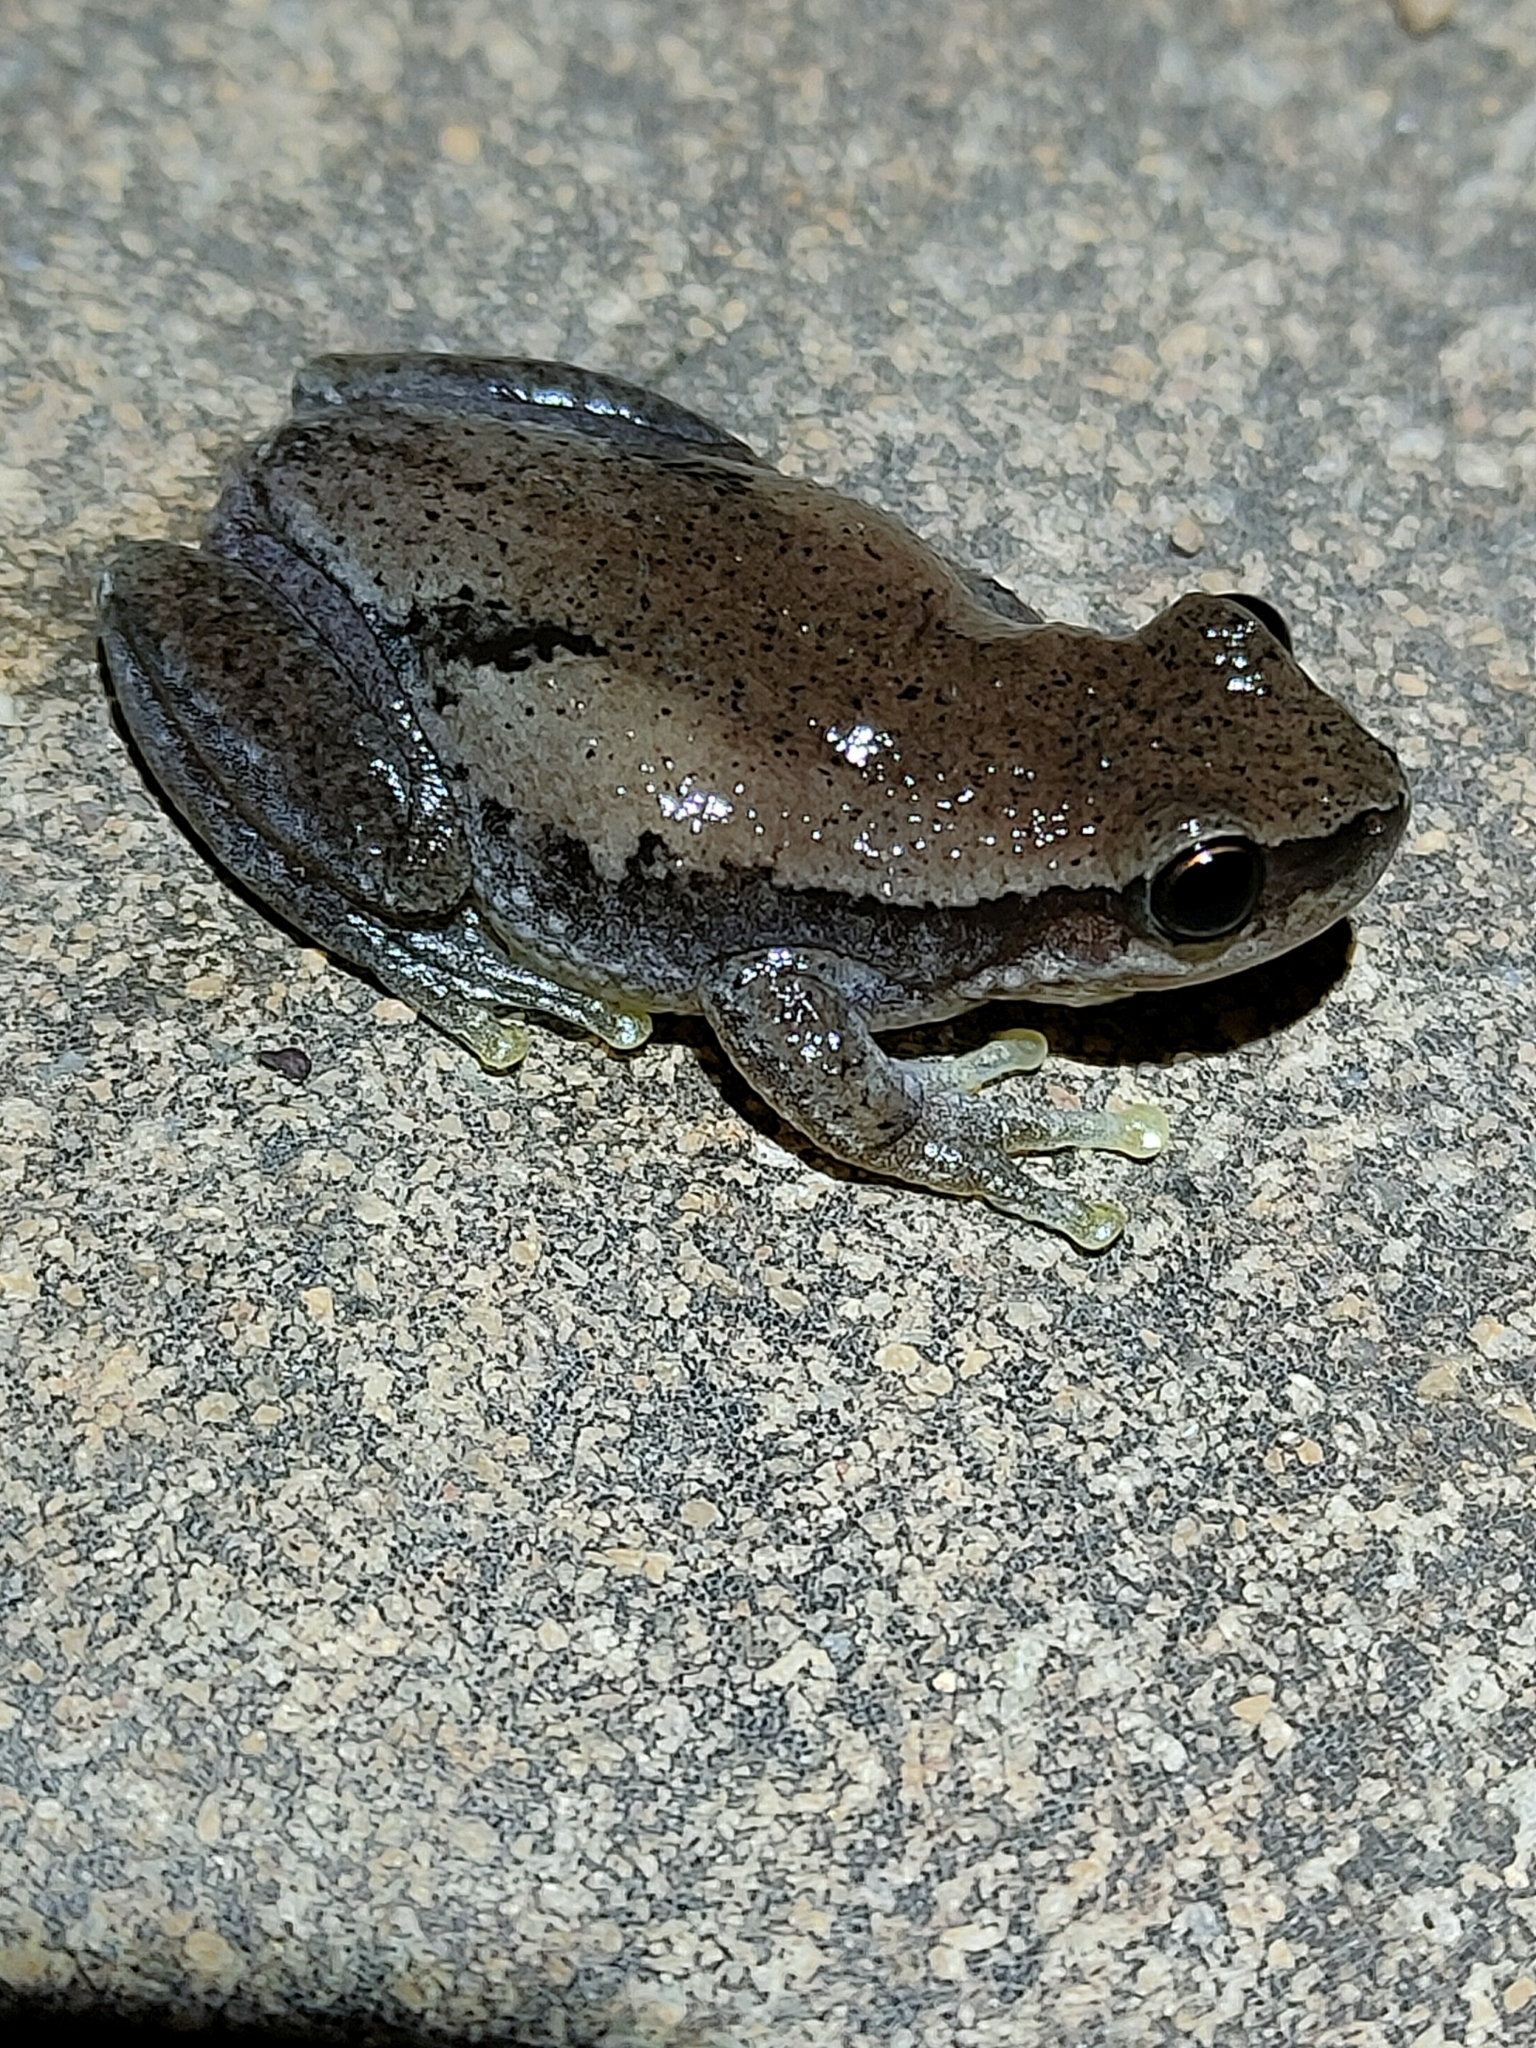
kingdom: Animalia
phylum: Chordata
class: Amphibia
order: Anura
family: Pelodryadidae
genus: Litoria
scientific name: Litoria rubella
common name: Desert tree frog
